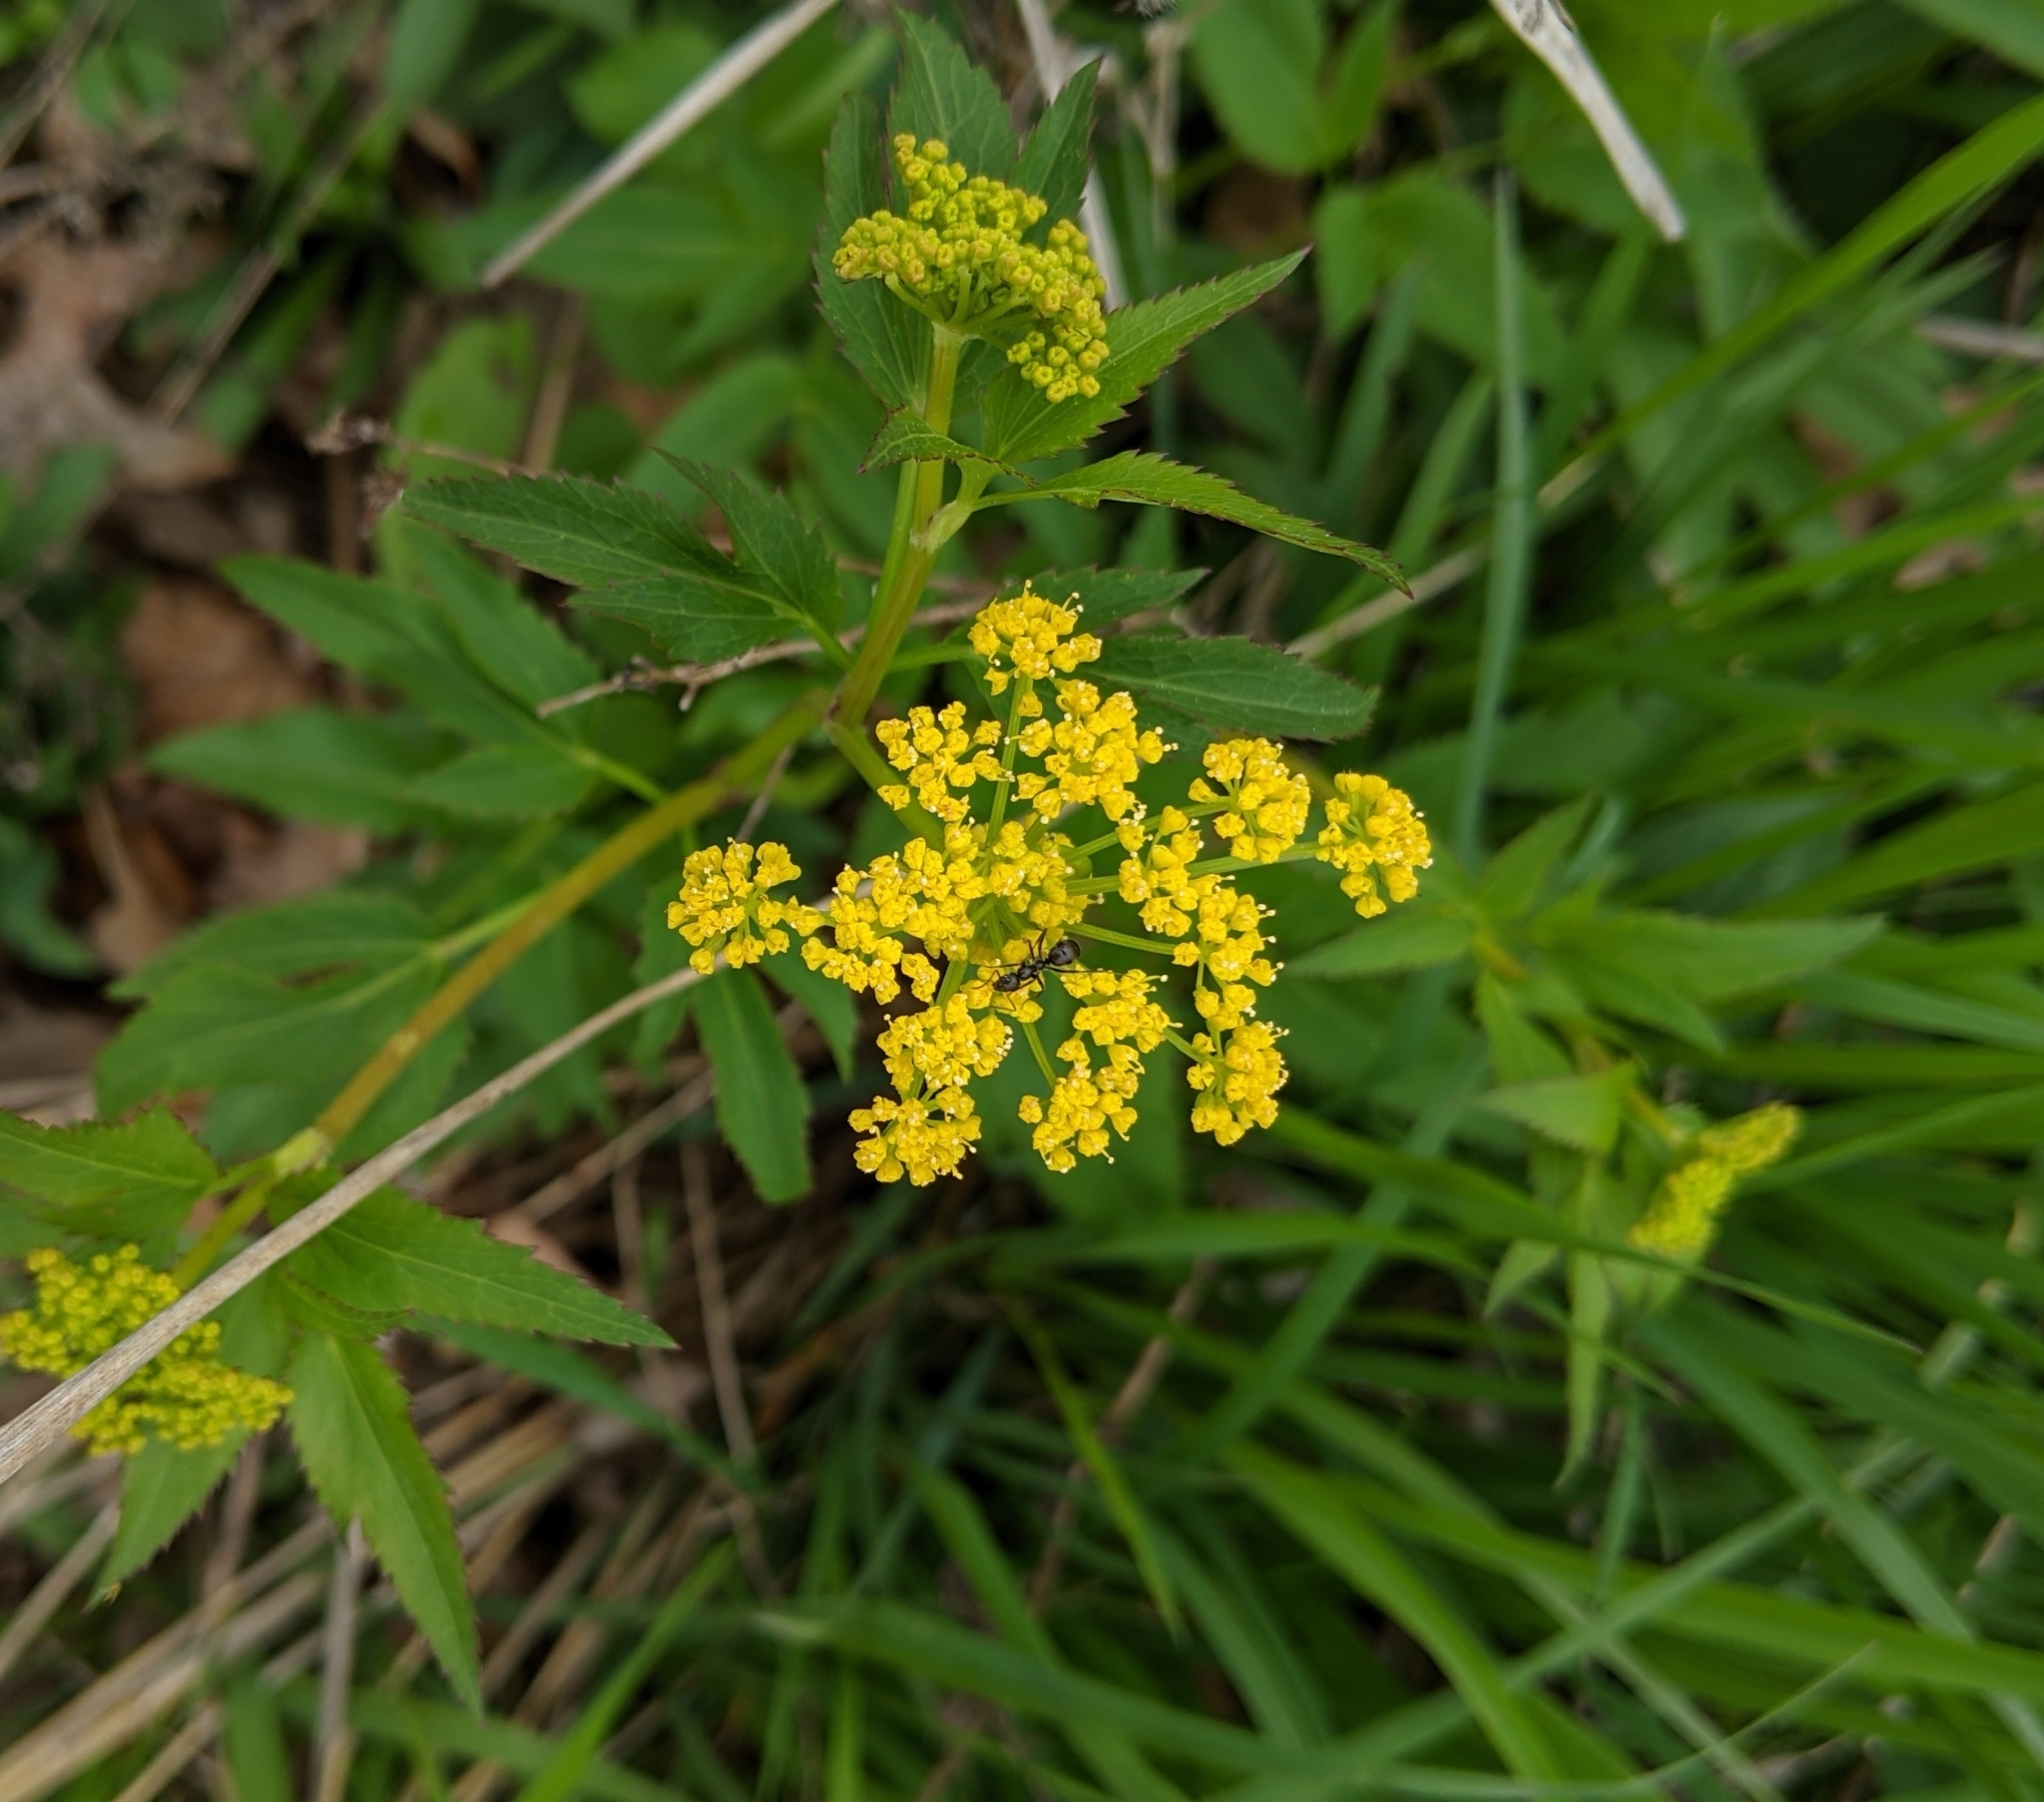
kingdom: Plantae
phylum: Tracheophyta
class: Magnoliopsida
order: Apiales
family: Apiaceae
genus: Zizia
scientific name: Zizia aurea
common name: Golden alexanders
